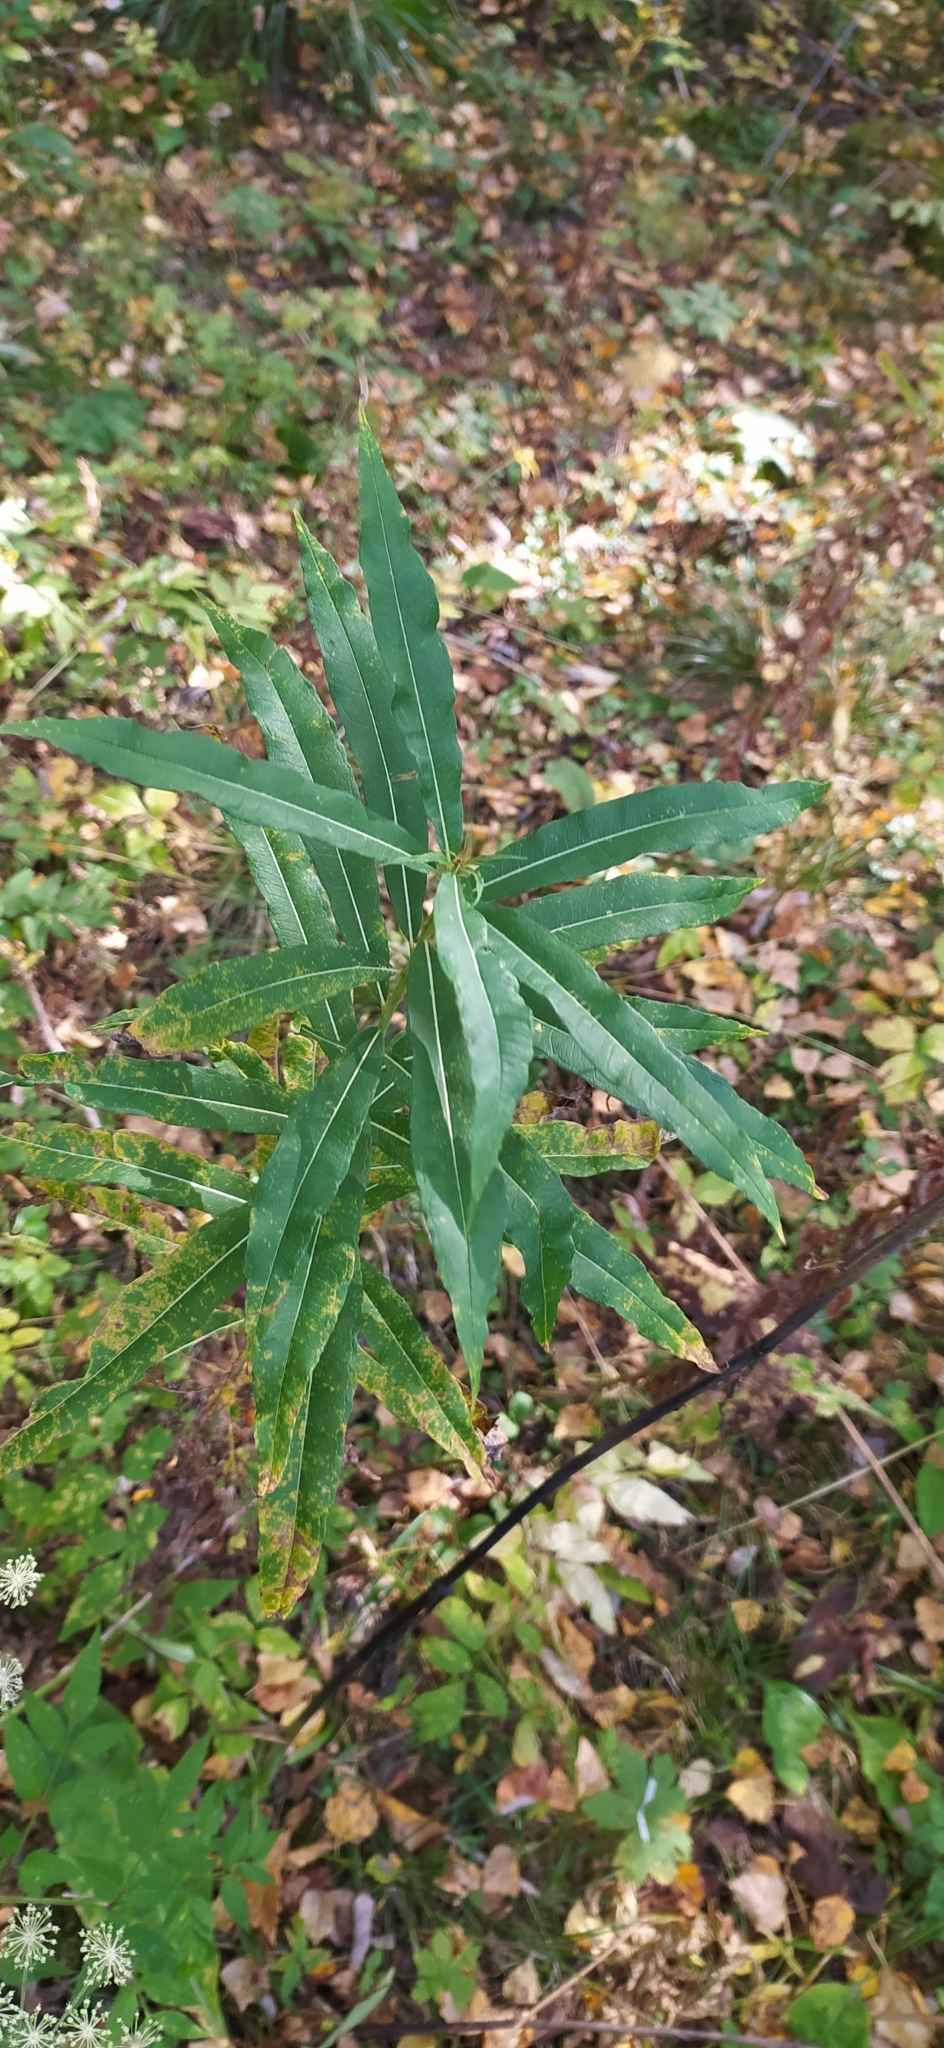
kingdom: Plantae
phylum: Tracheophyta
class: Magnoliopsida
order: Myrtales
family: Onagraceae
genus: Chamaenerion
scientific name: Chamaenerion angustifolium
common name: Fireweed
